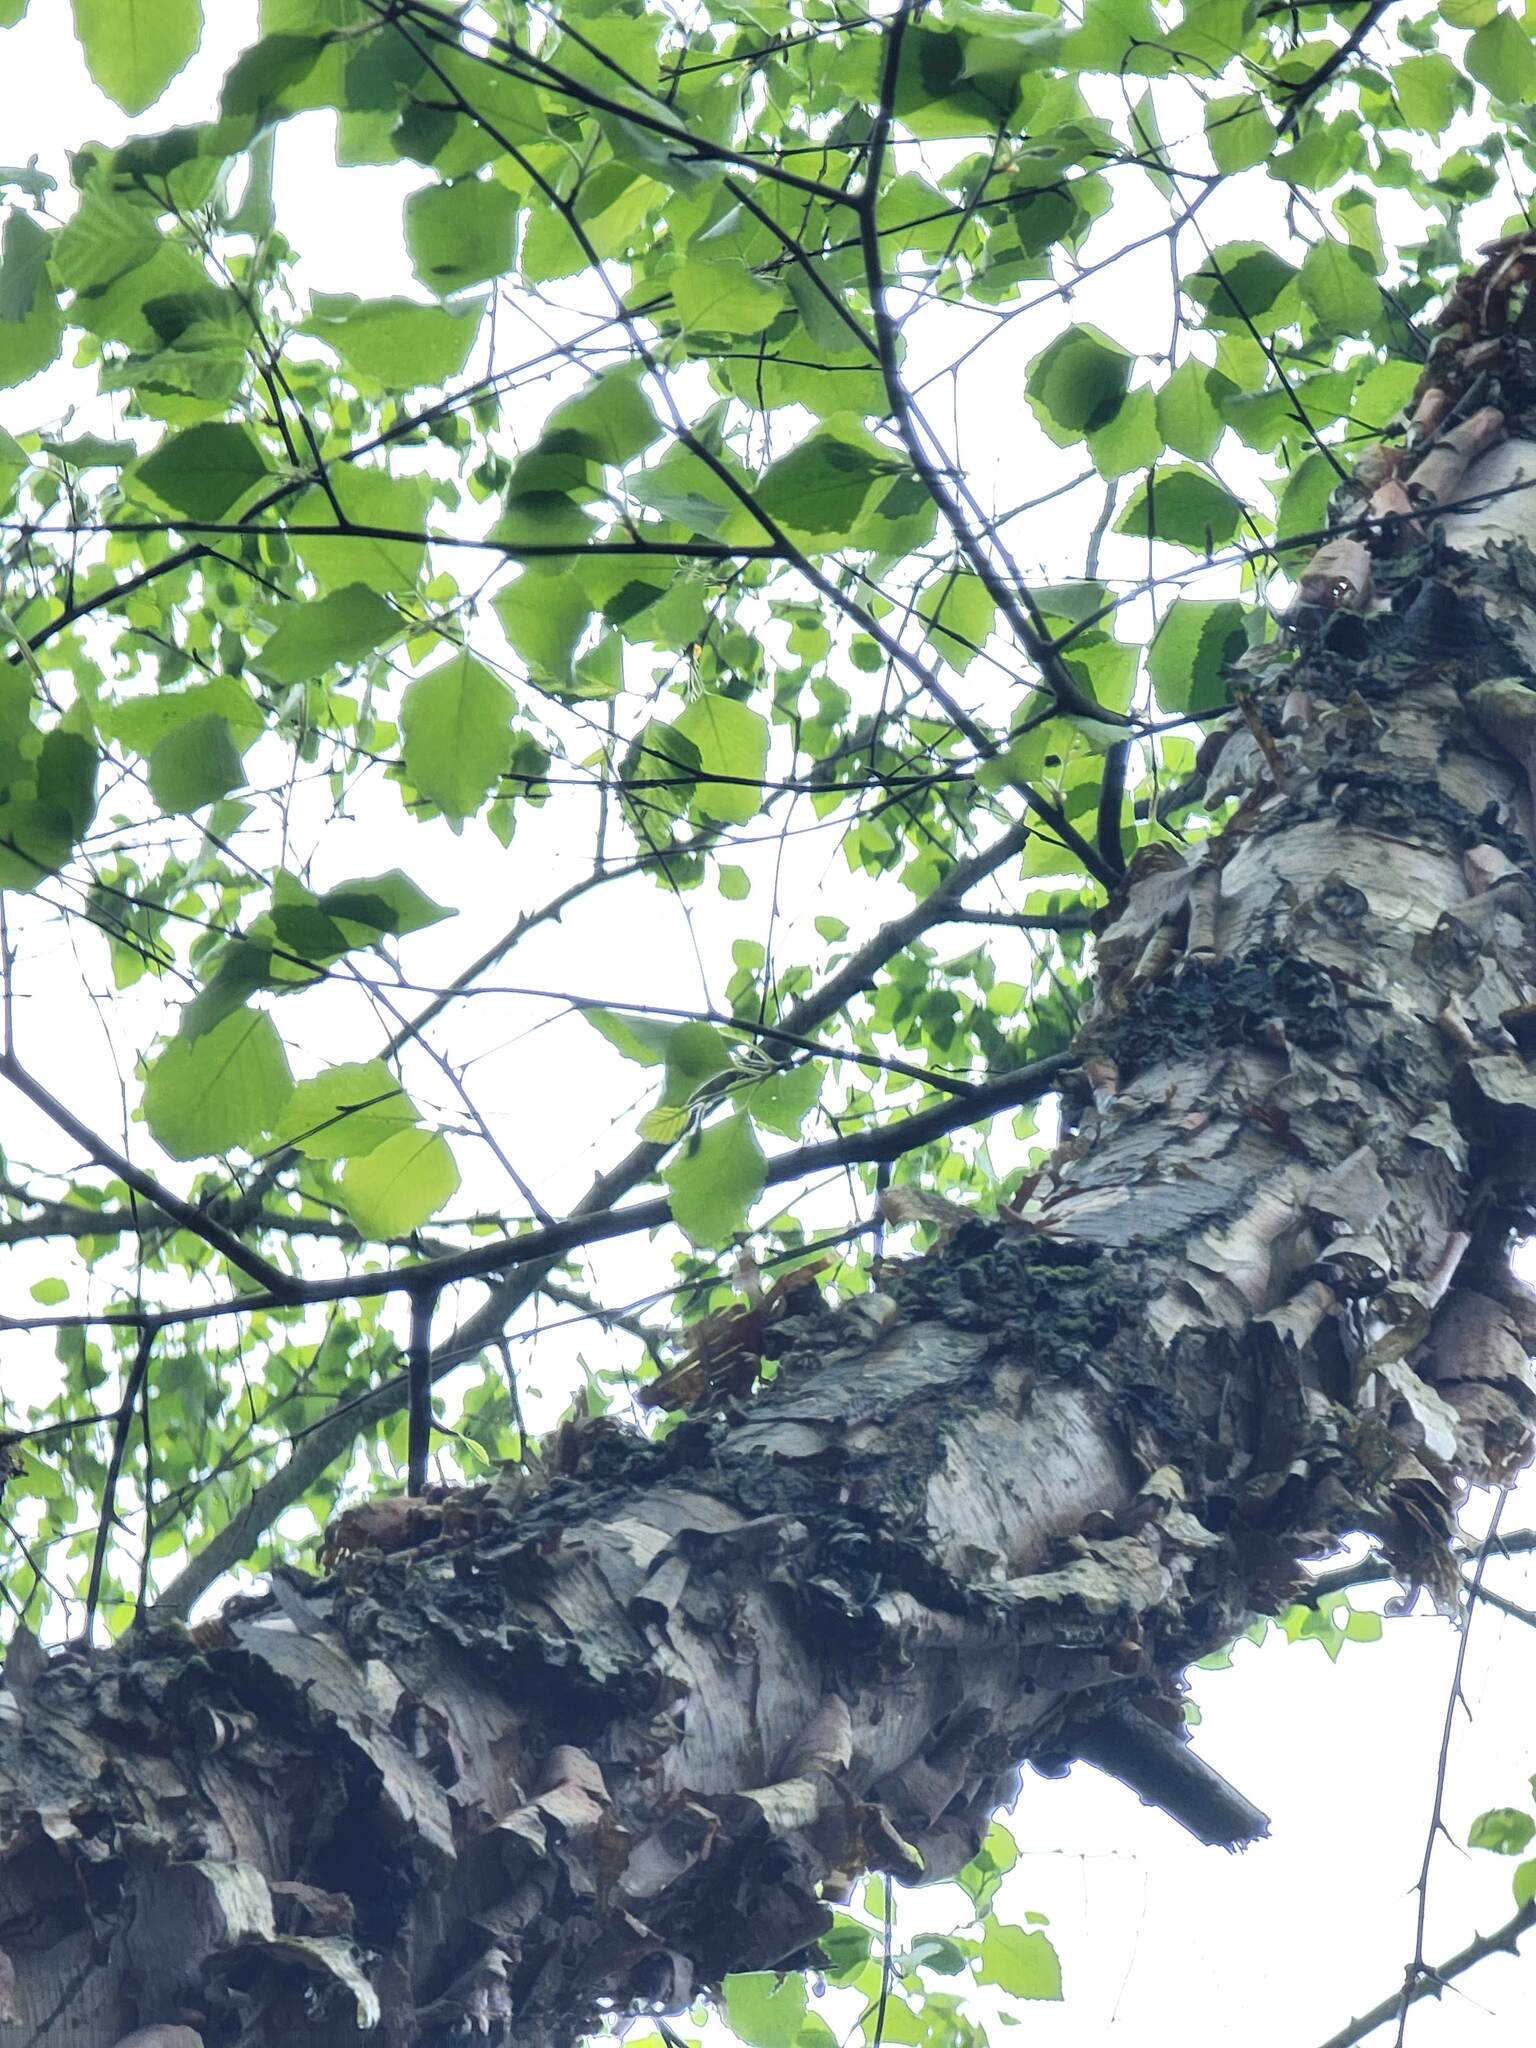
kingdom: Plantae
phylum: Tracheophyta
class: Magnoliopsida
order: Fagales
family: Betulaceae
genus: Betula
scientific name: Betula nigra
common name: Black birch
